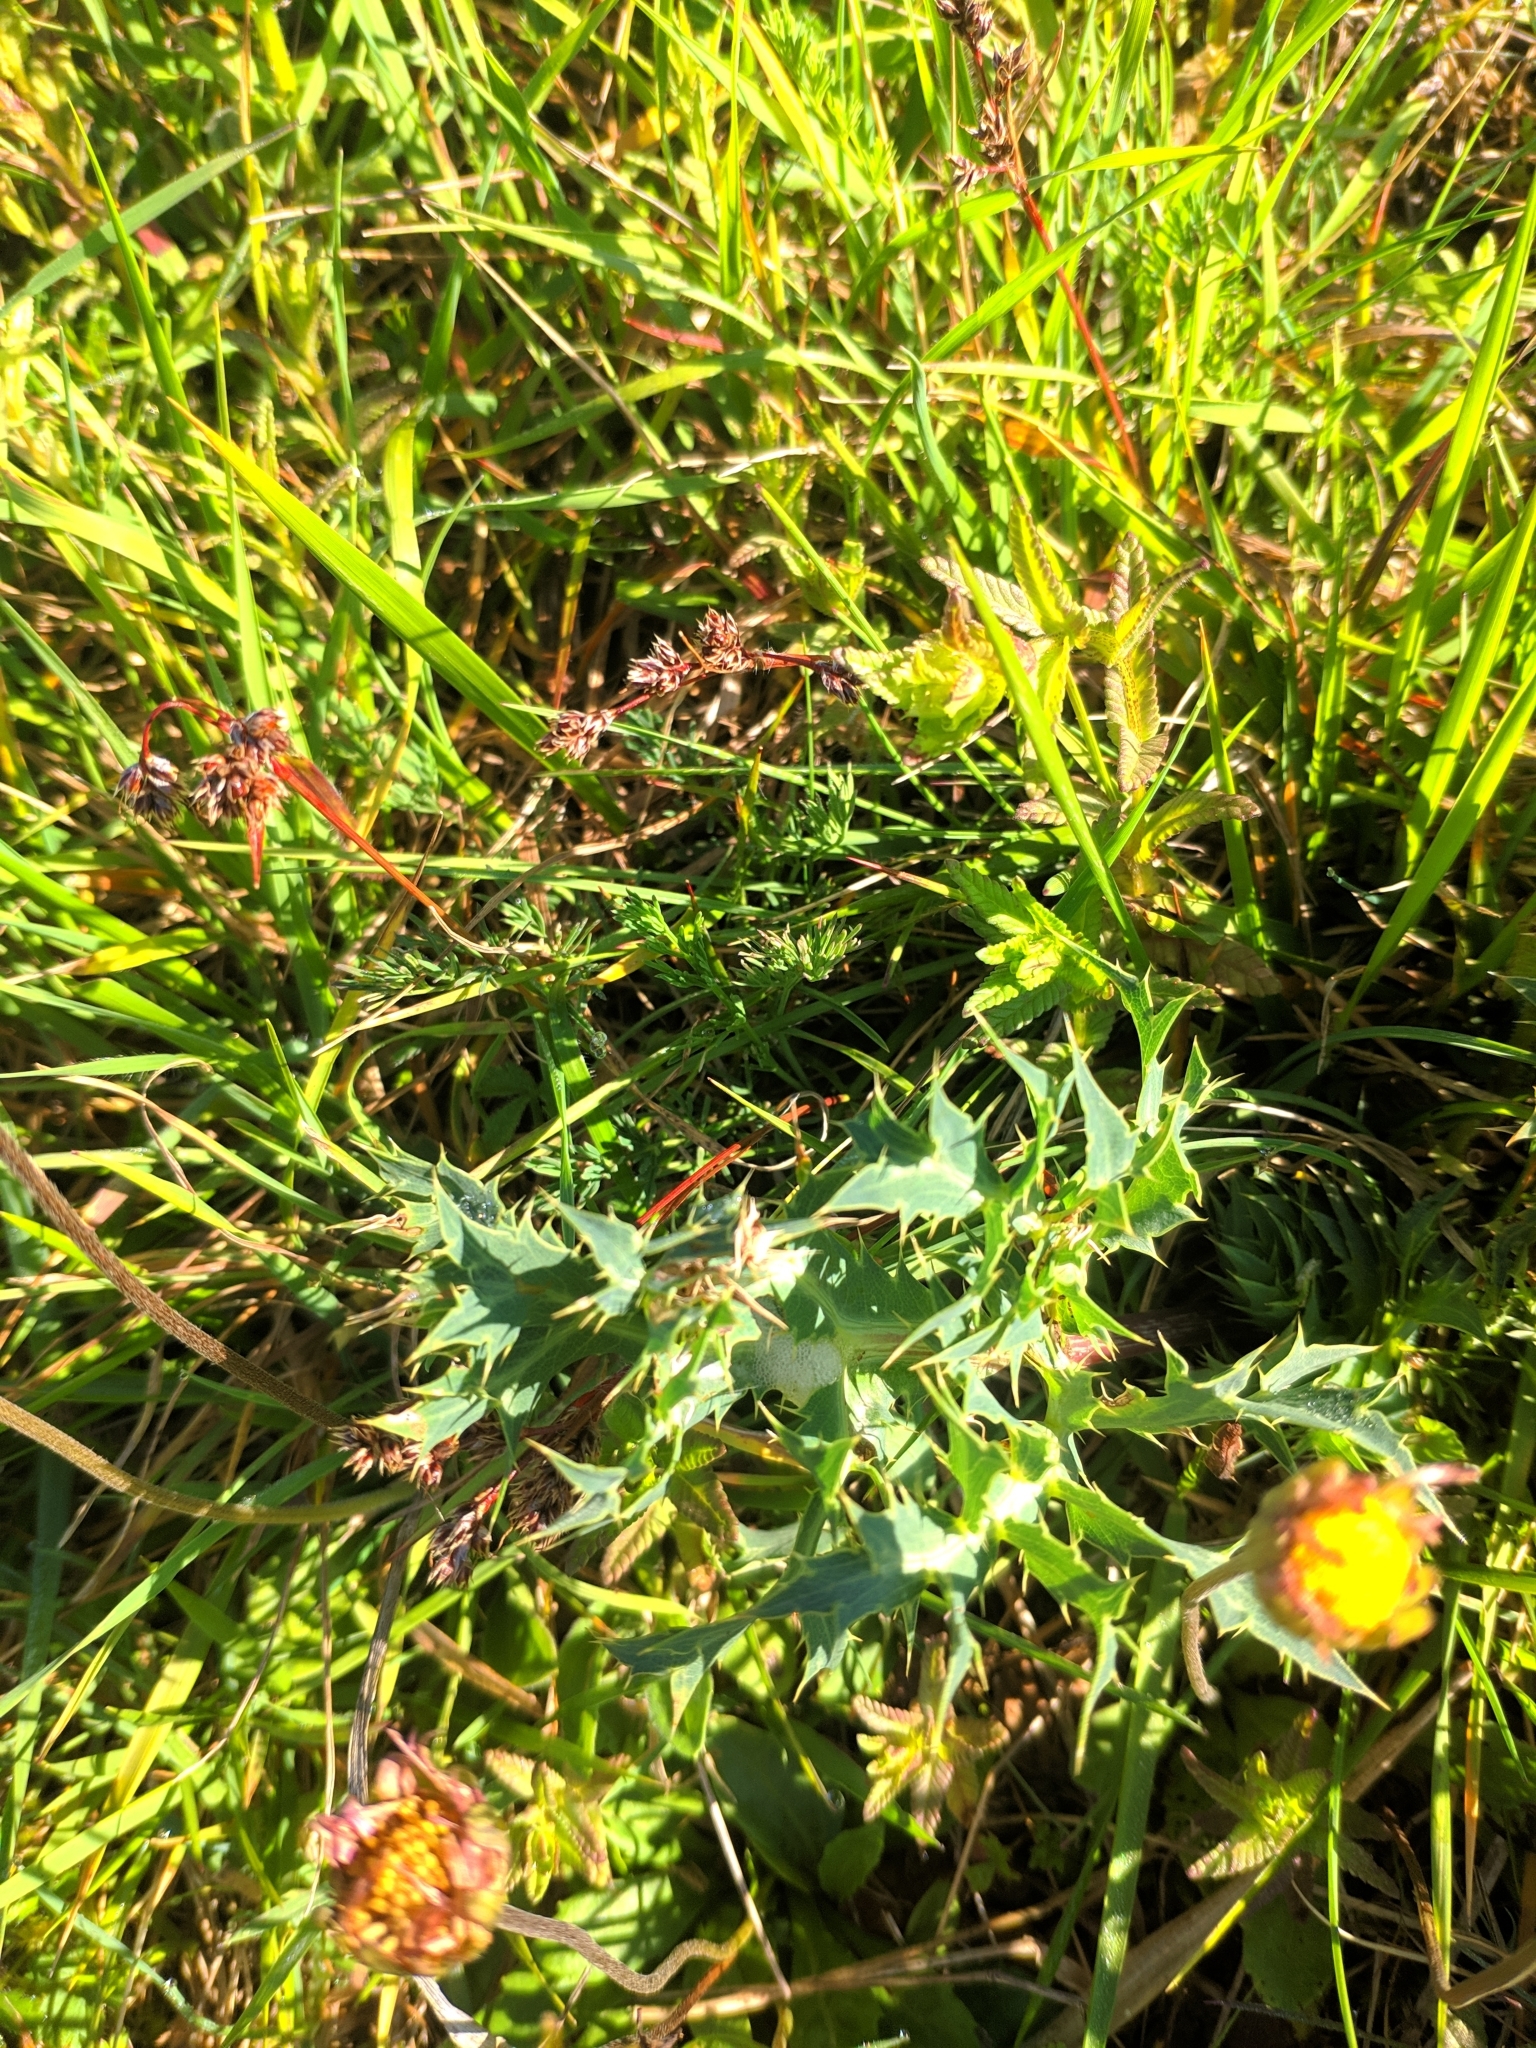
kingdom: Plantae
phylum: Tracheophyta
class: Magnoliopsida
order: Apiales
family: Apiaceae
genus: Eryngium
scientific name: Eryngium campestre
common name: Field eryngo
